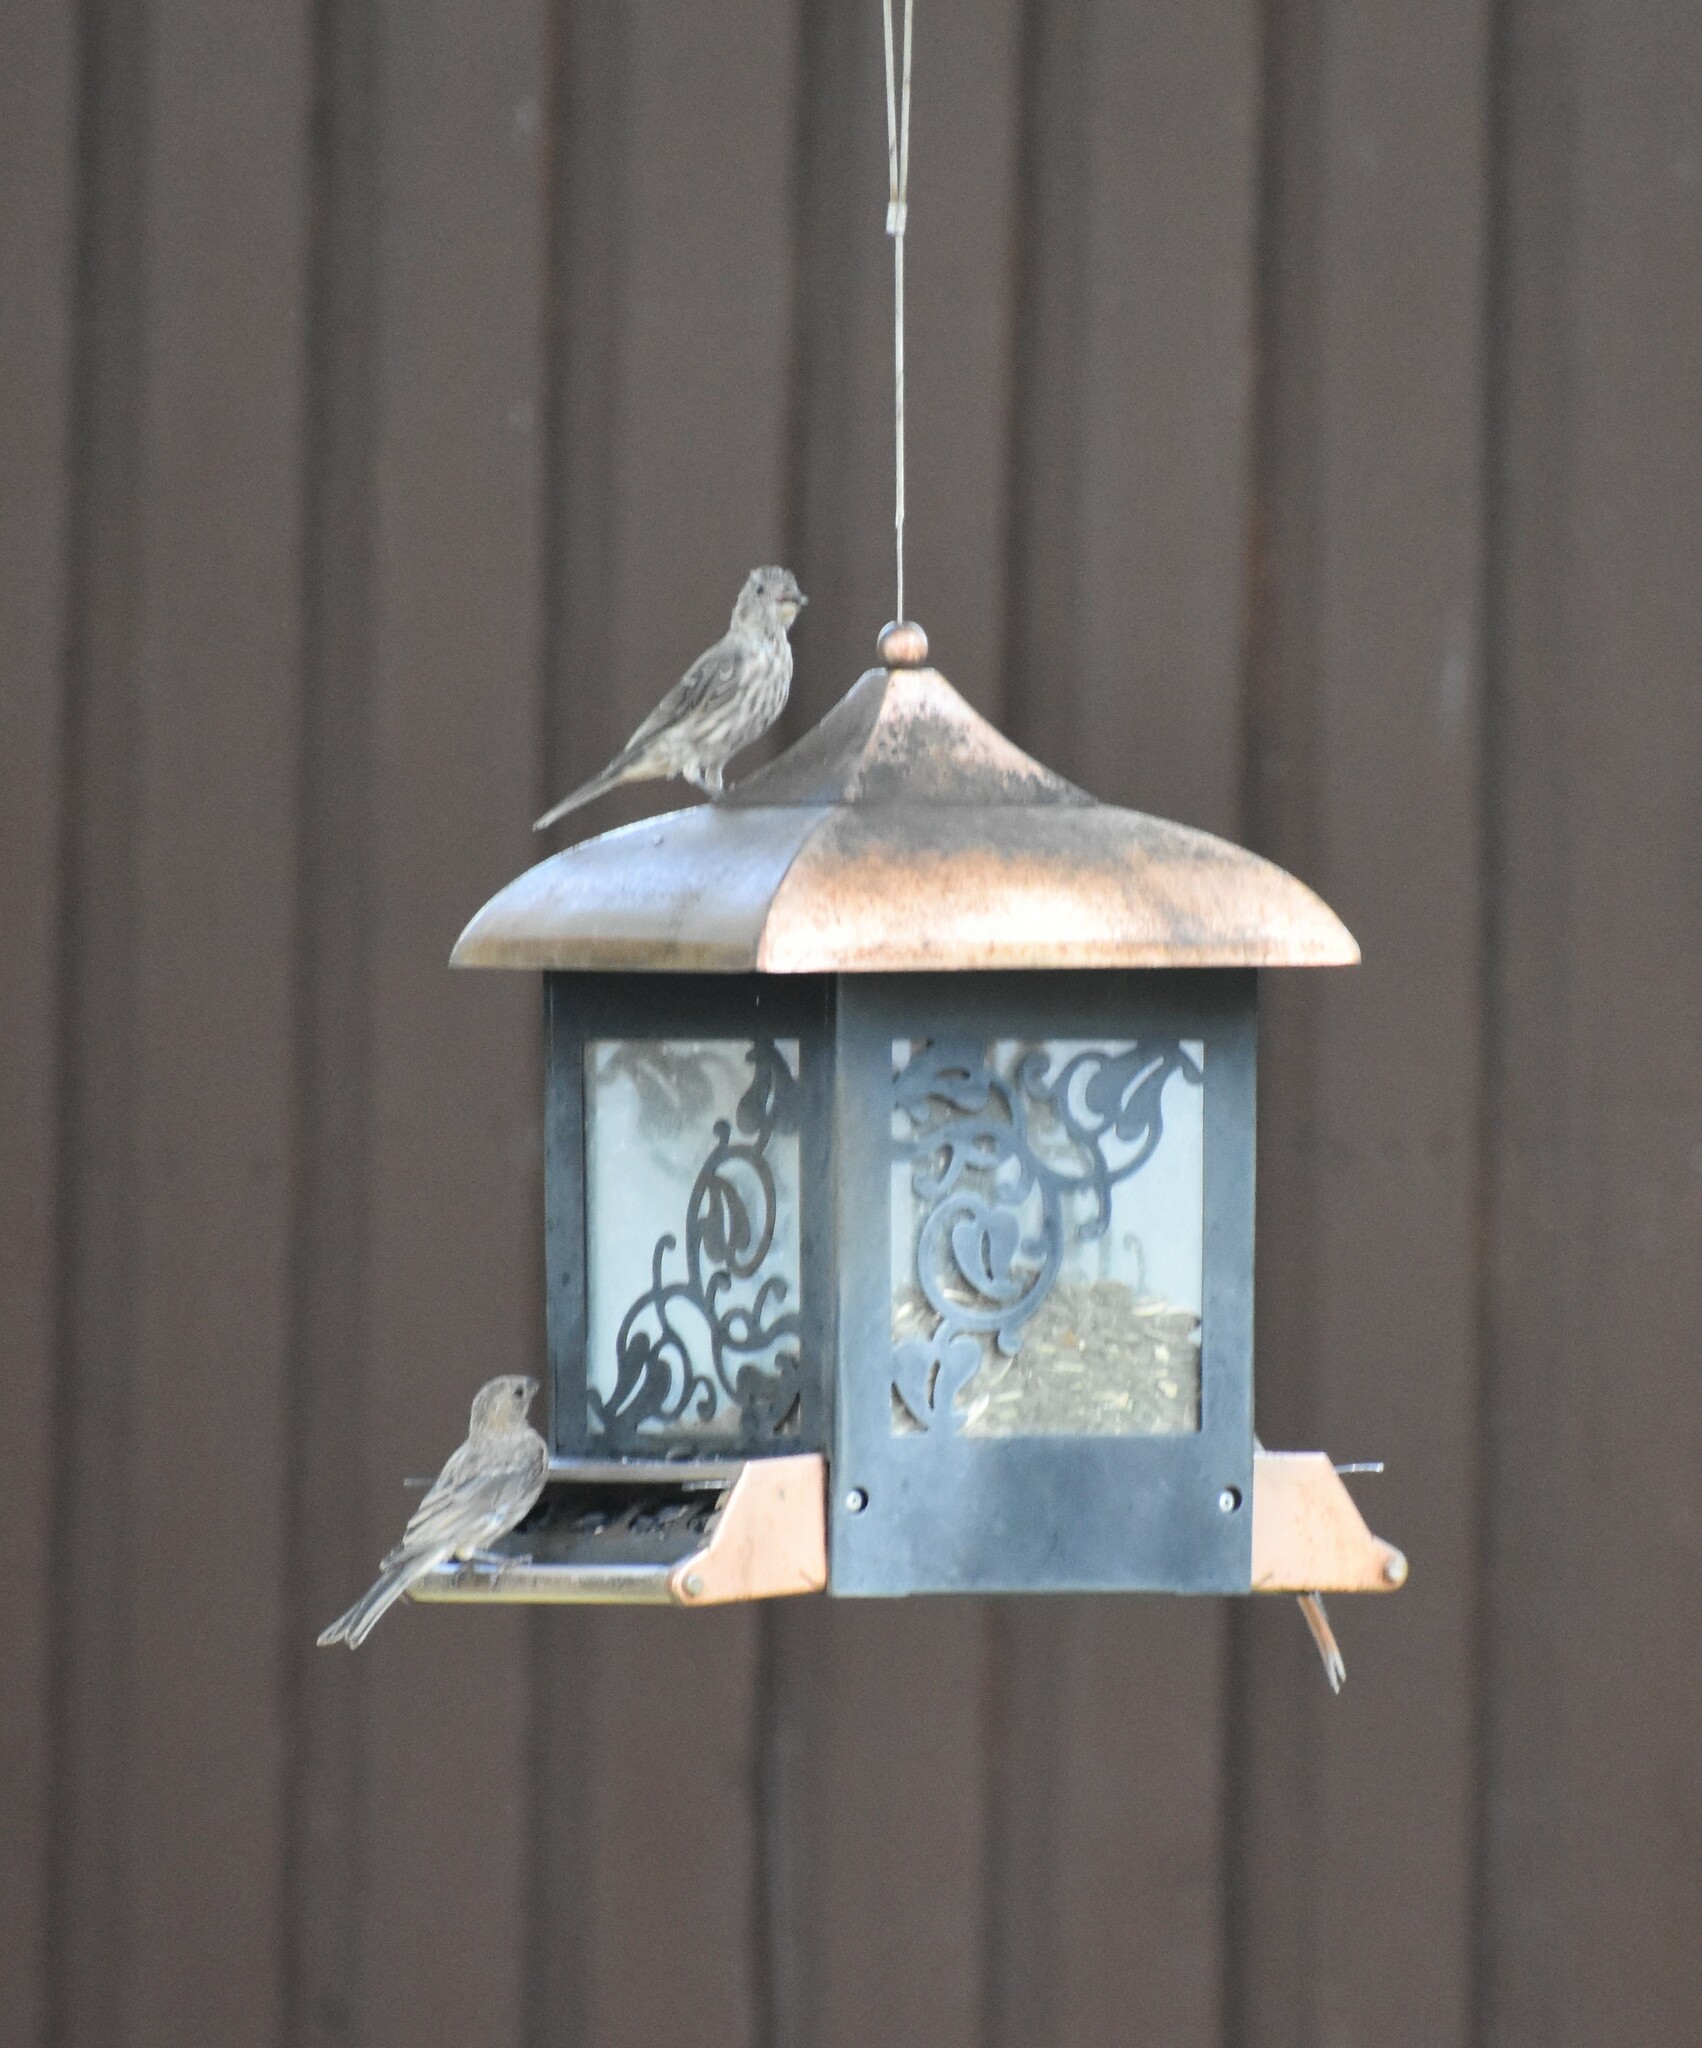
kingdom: Animalia
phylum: Chordata
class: Aves
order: Passeriformes
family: Fringillidae
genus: Haemorhous
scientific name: Haemorhous mexicanus
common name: House finch
